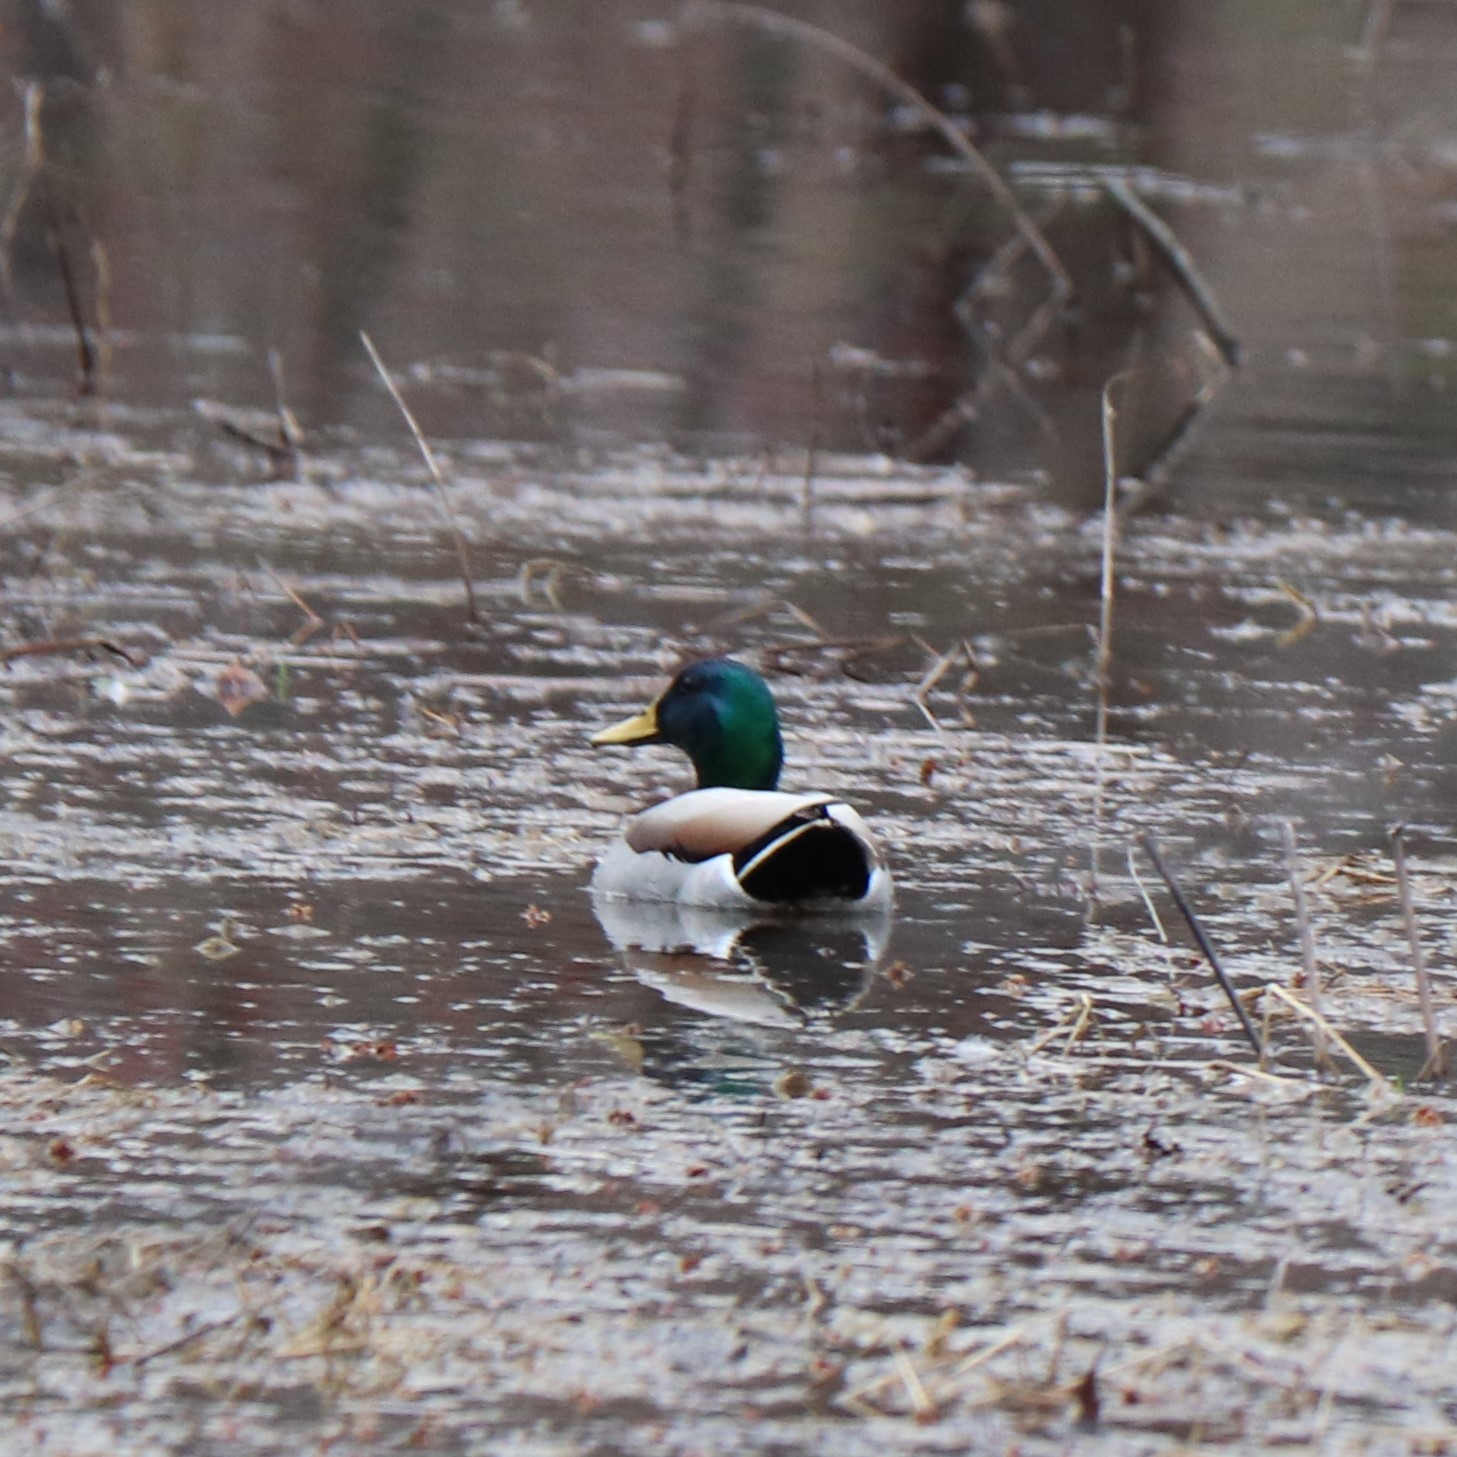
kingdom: Animalia
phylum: Chordata
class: Aves
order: Anseriformes
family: Anatidae
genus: Anas
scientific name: Anas platyrhynchos
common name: Mallard
